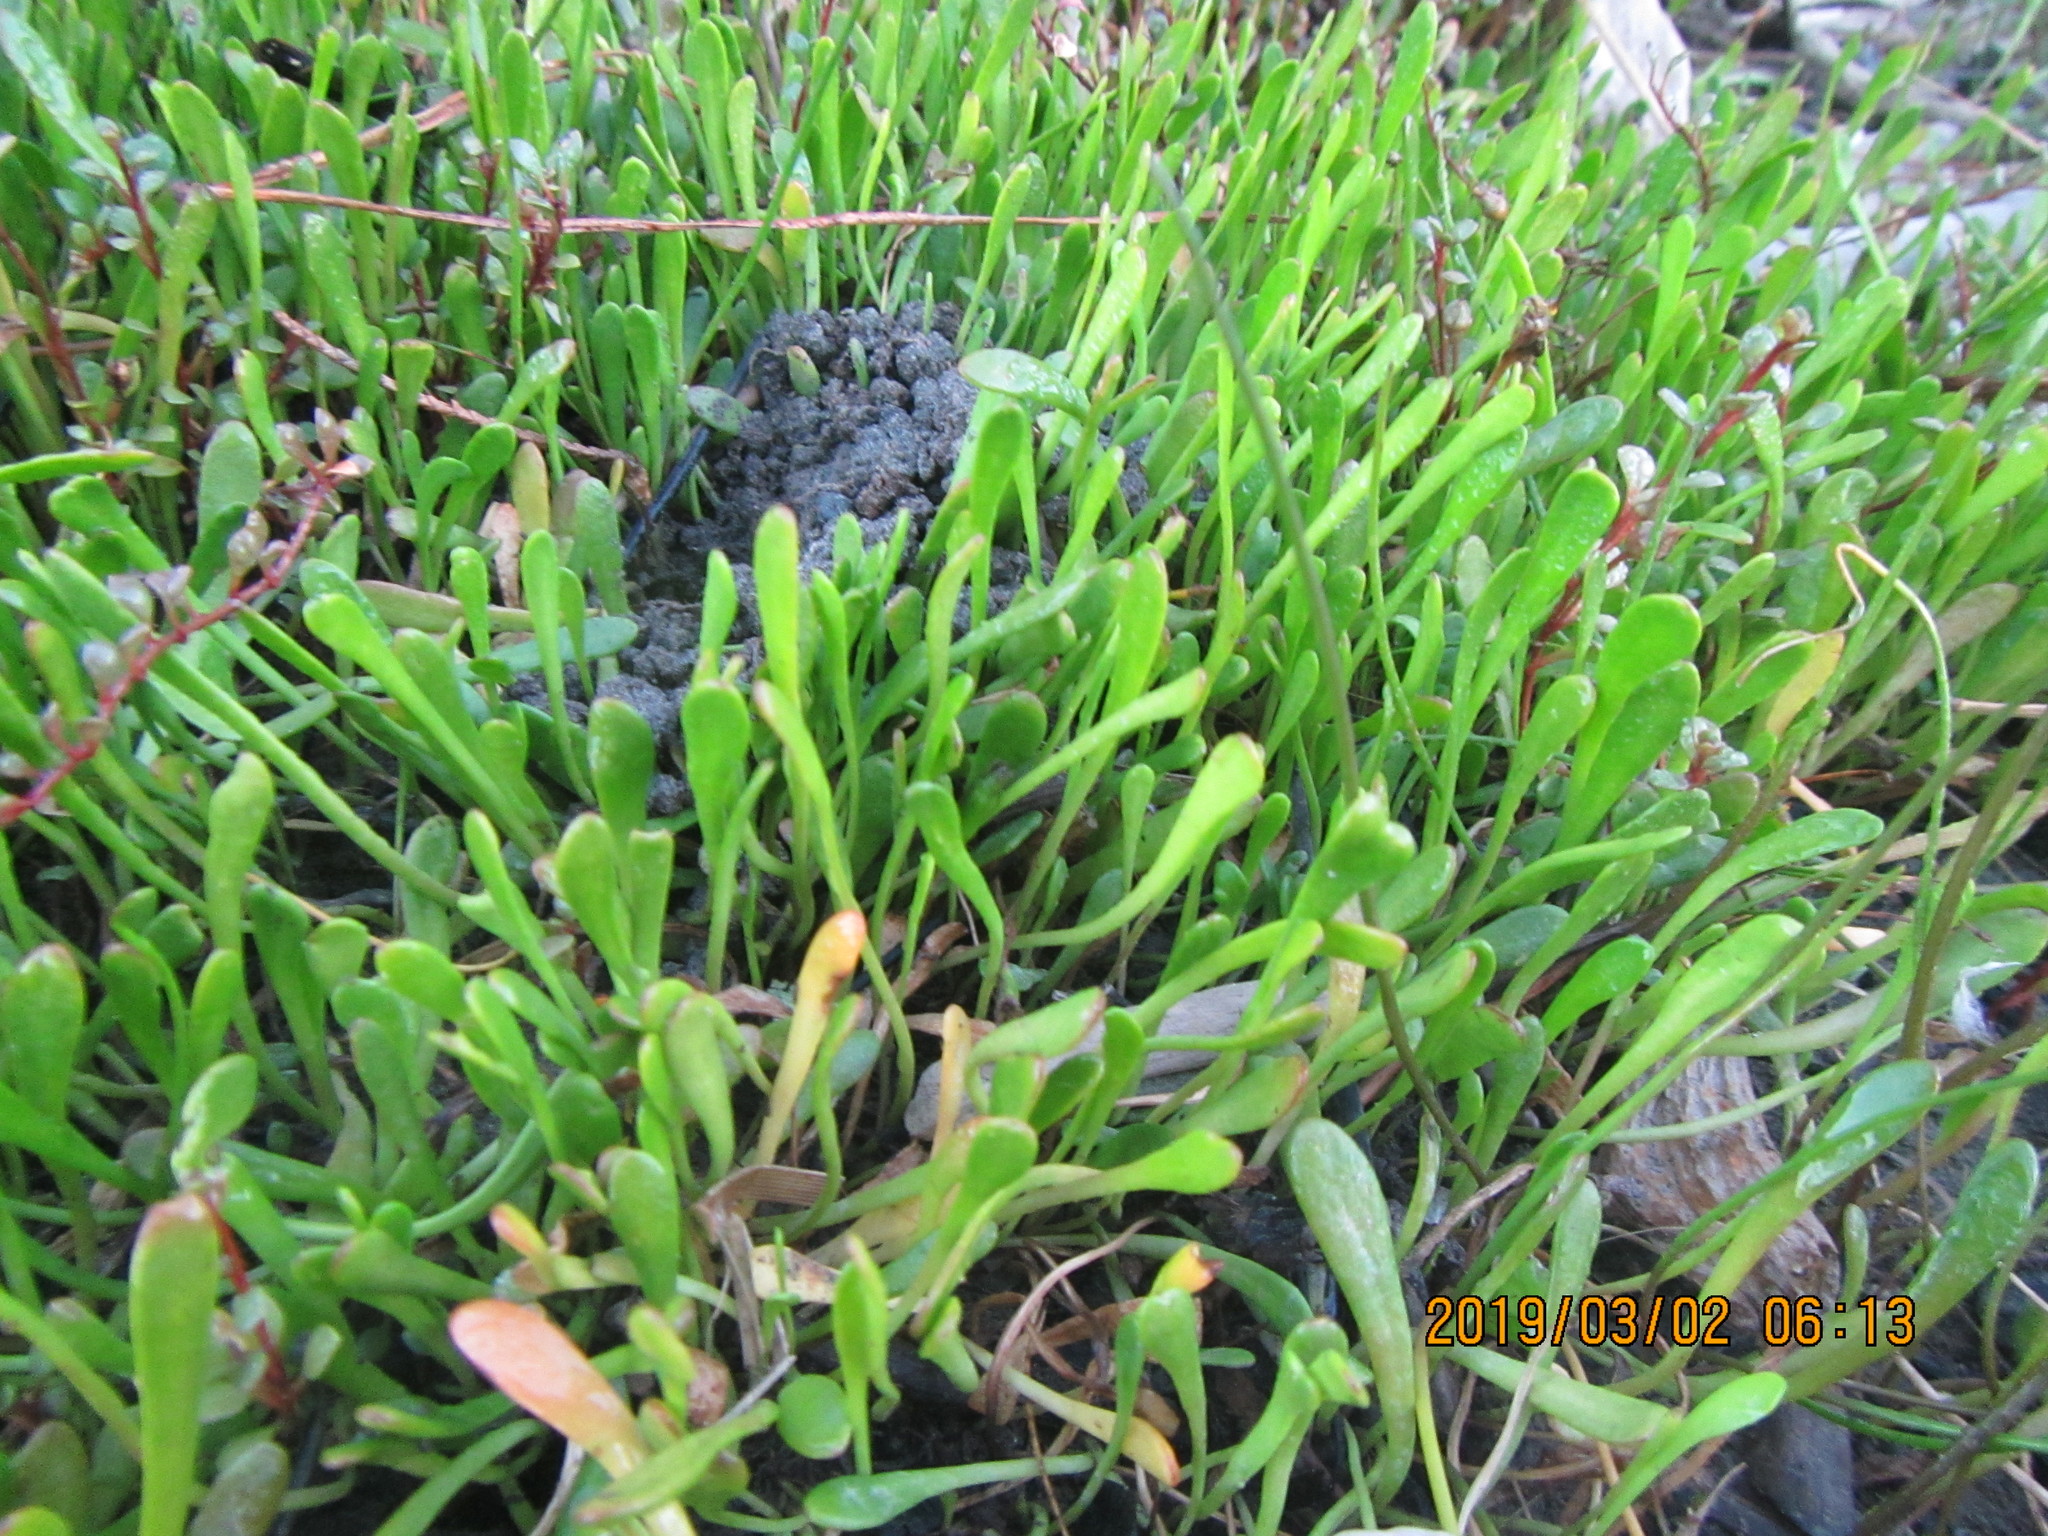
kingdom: Plantae
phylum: Tracheophyta
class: Magnoliopsida
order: Asterales
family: Goodeniaceae
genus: Goodenia
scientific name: Goodenia radicans
